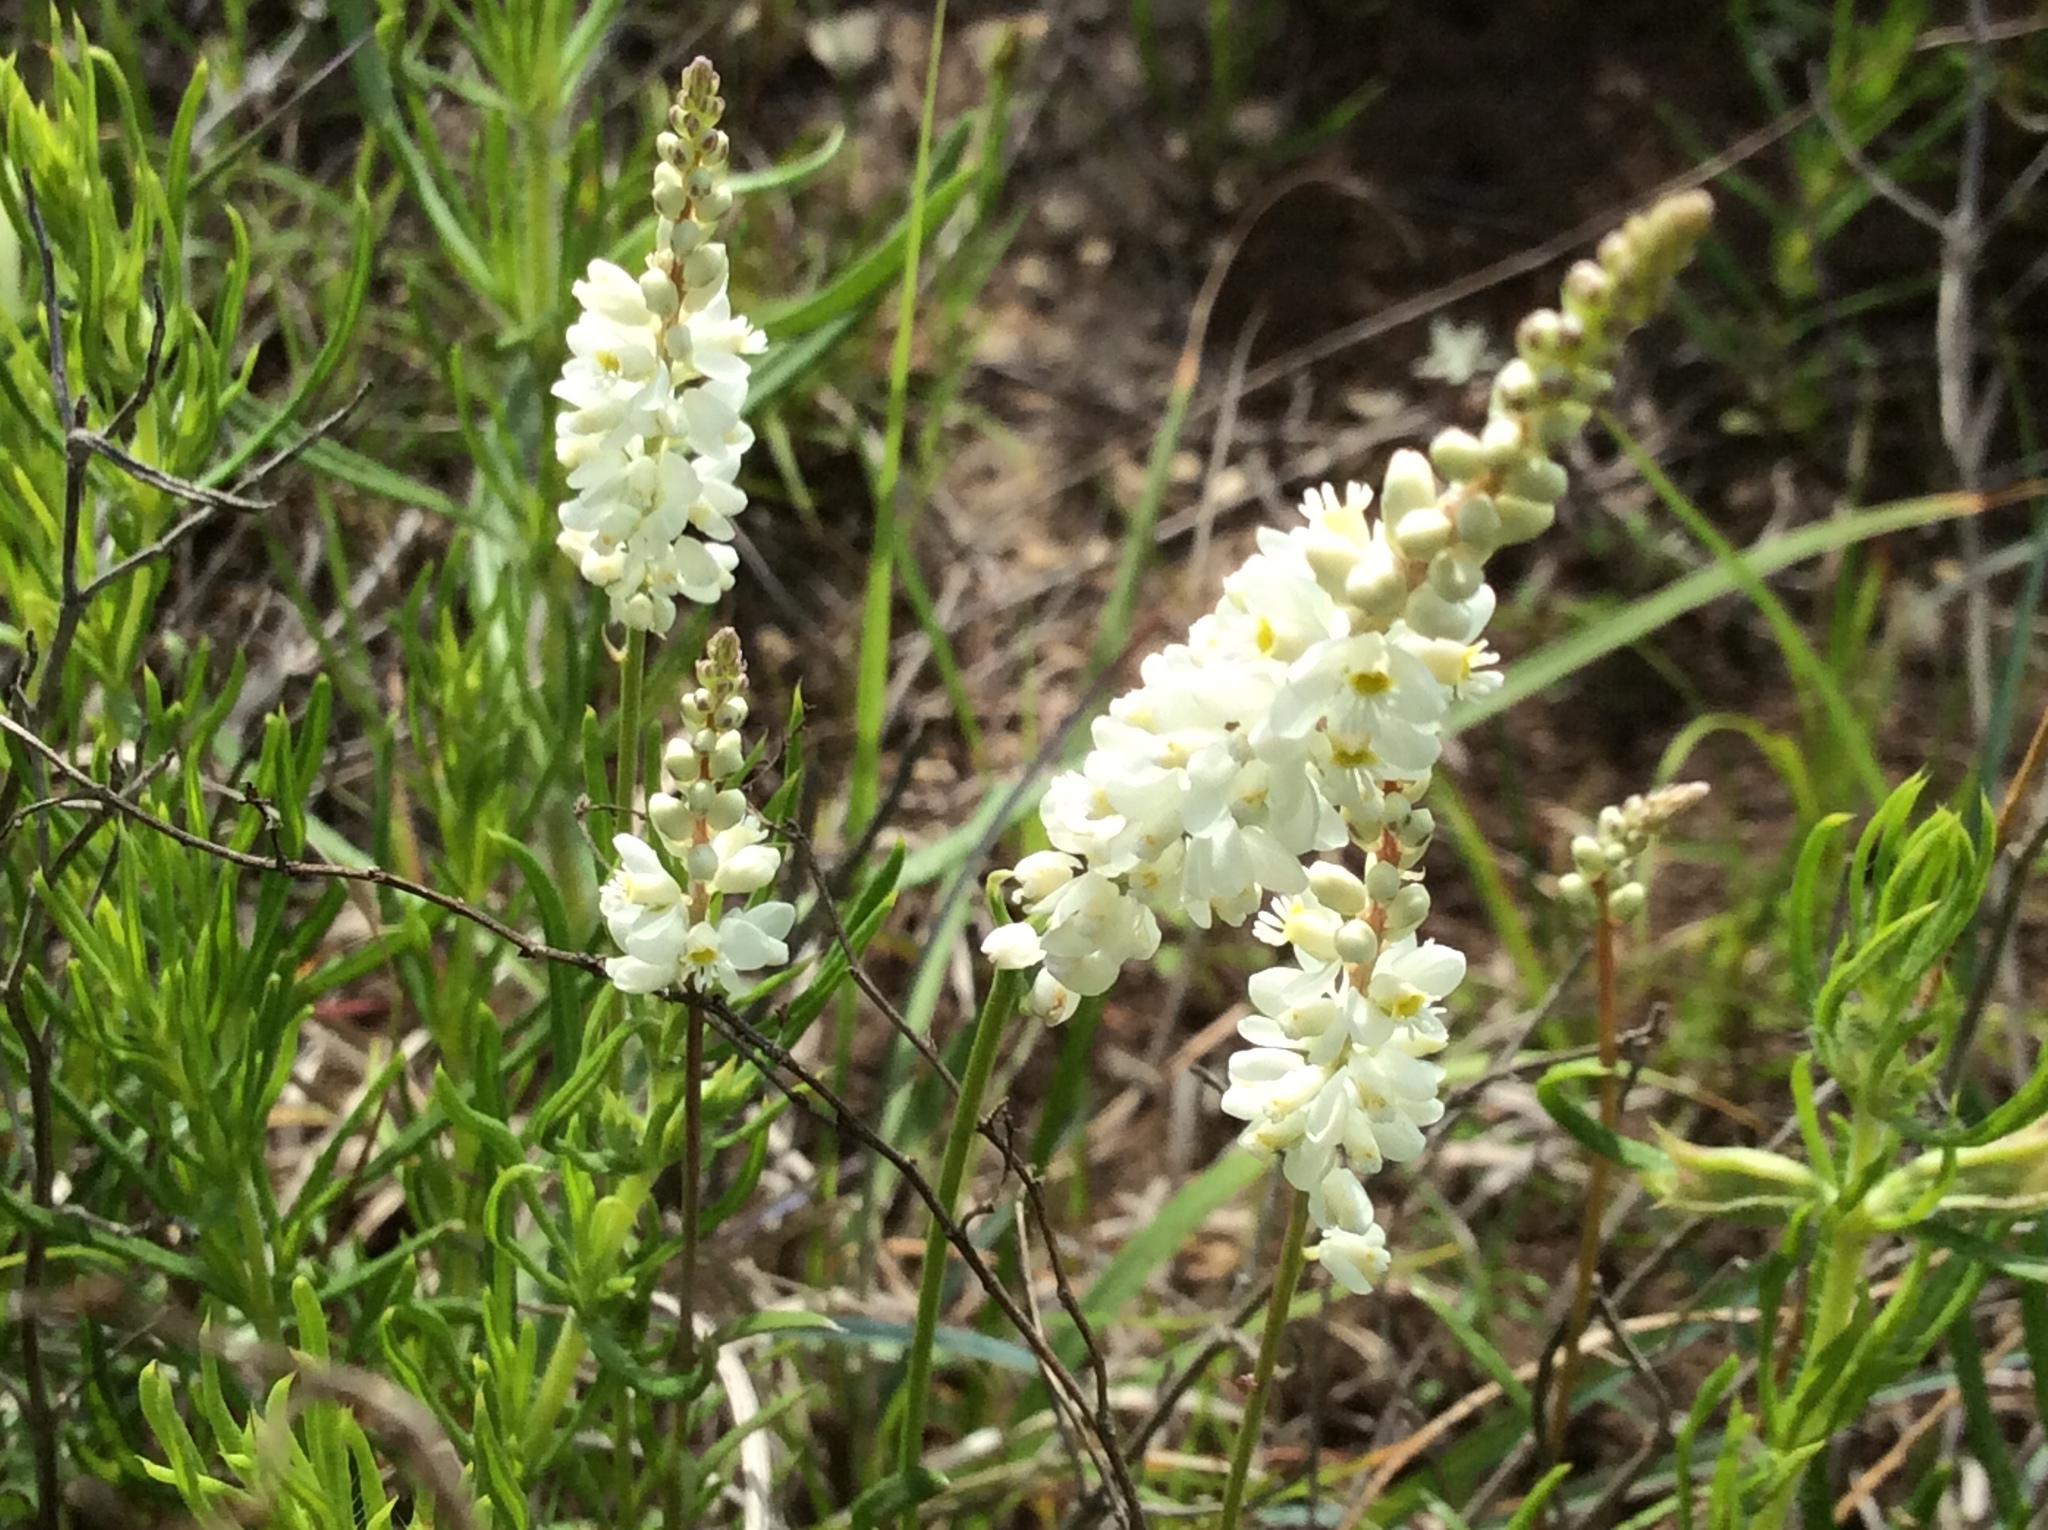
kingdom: Plantae
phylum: Tracheophyta
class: Magnoliopsida
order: Fabales
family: Polygalaceae
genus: Polygala
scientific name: Polygala alba
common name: White milkwort
